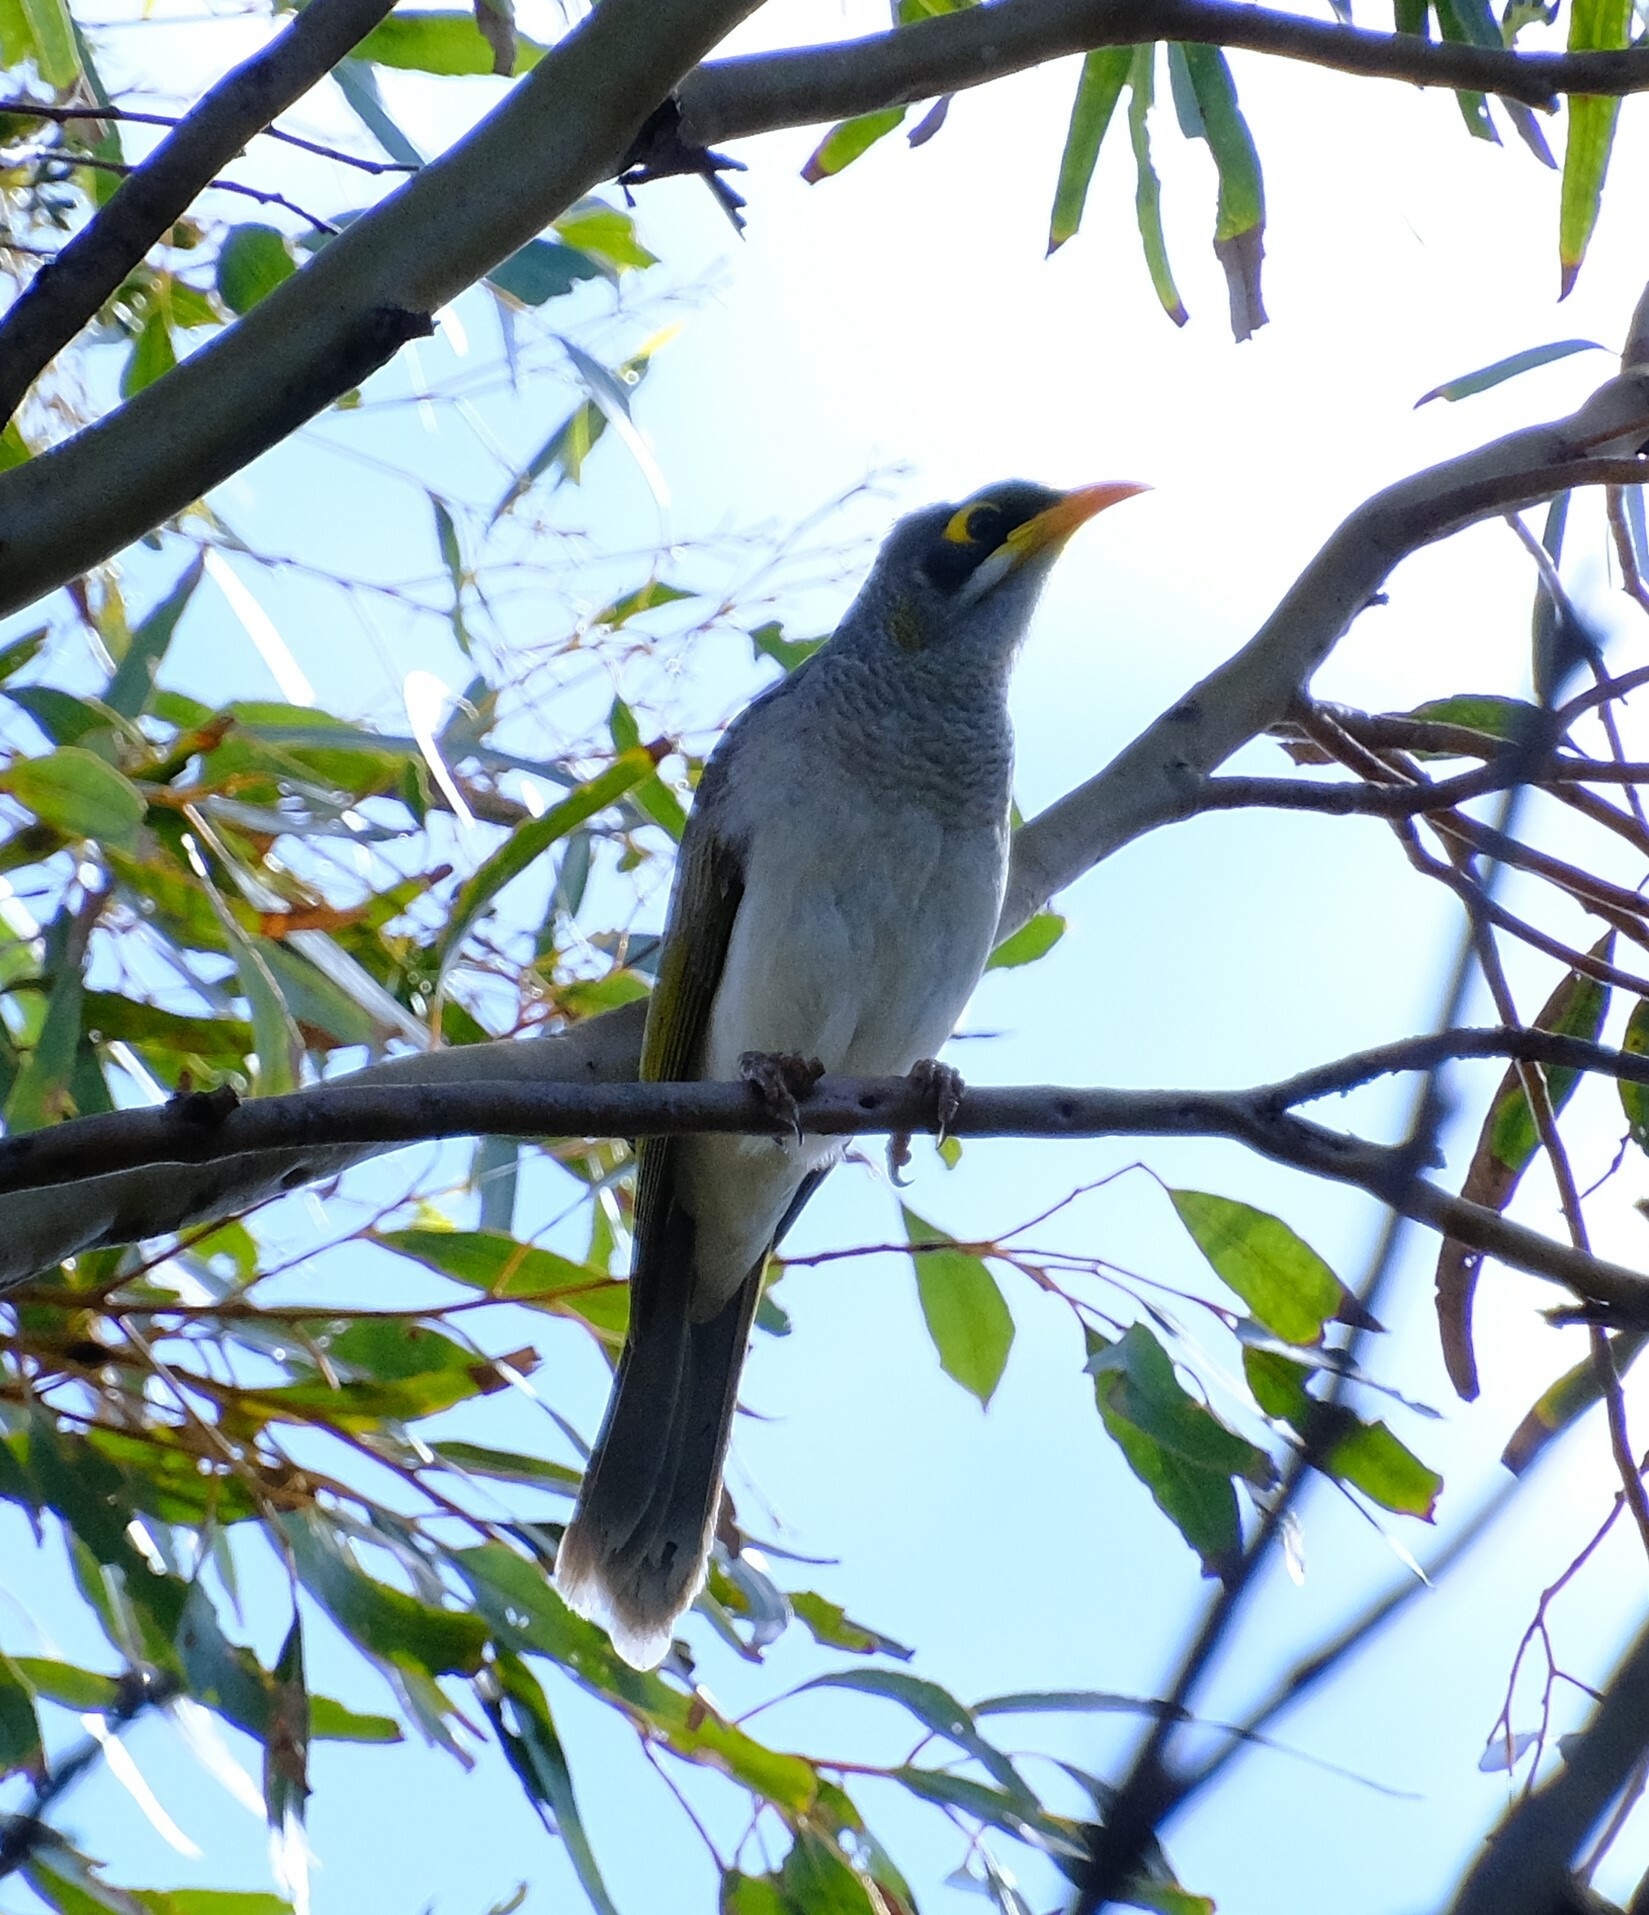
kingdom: Animalia
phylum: Chordata
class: Aves
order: Passeriformes
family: Meliphagidae
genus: Manorina
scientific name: Manorina flavigula
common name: Yellow-throated miner
